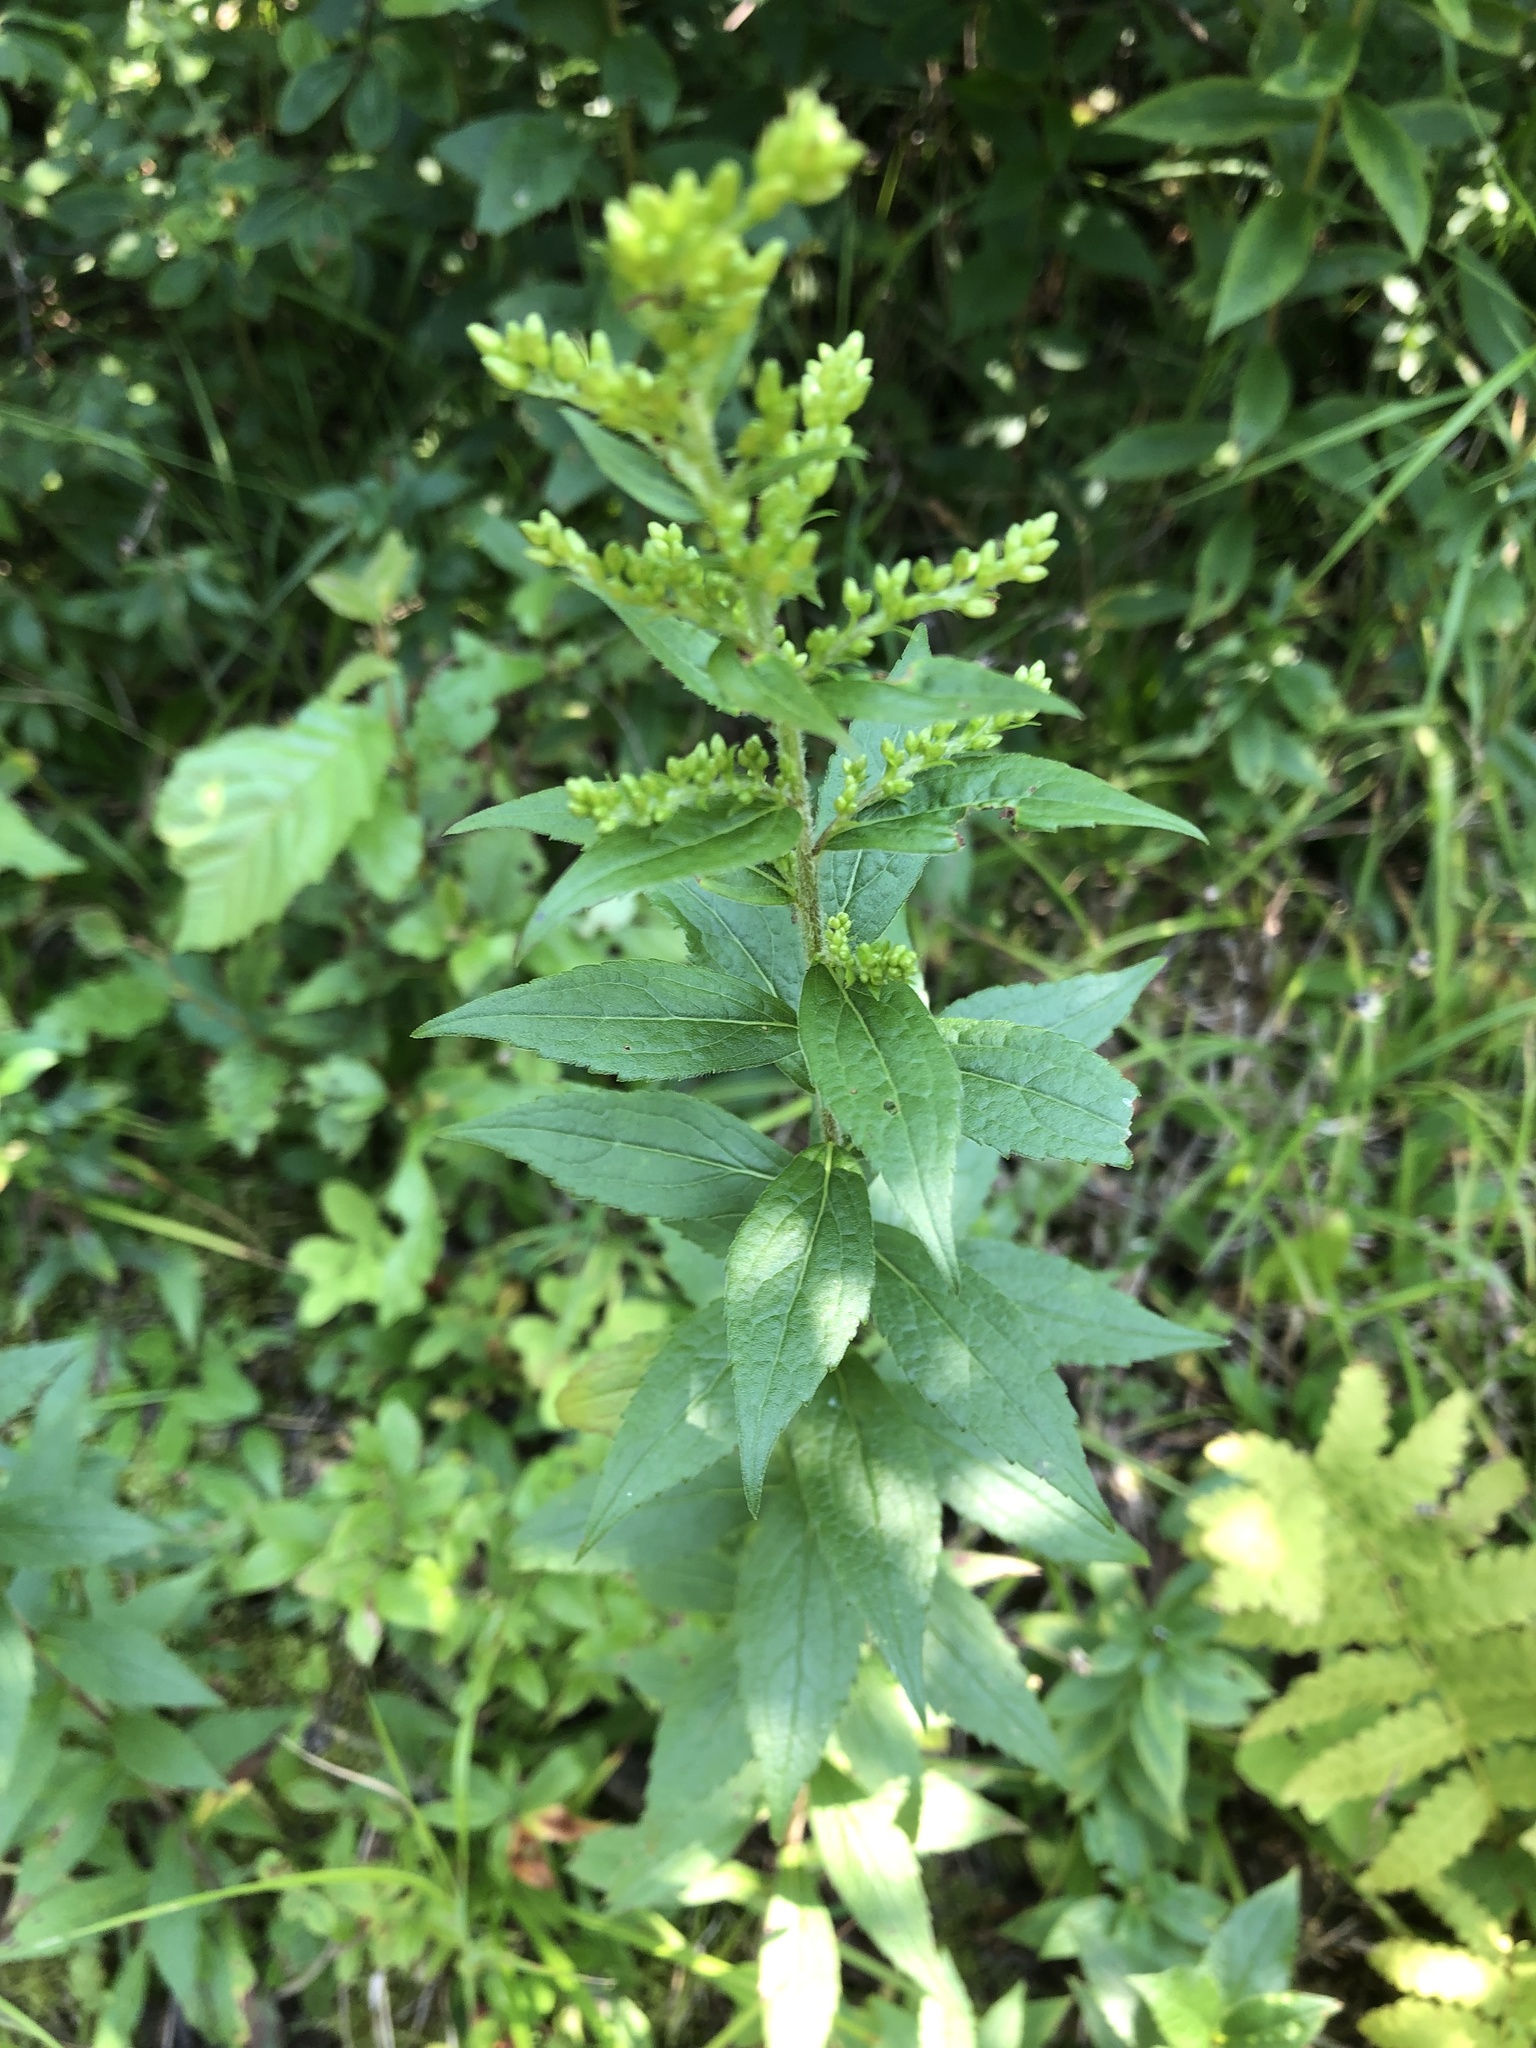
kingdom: Plantae
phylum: Tracheophyta
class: Magnoliopsida
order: Asterales
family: Asteraceae
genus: Solidago
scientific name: Solidago rugosa
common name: Rough-stemmed goldenrod
